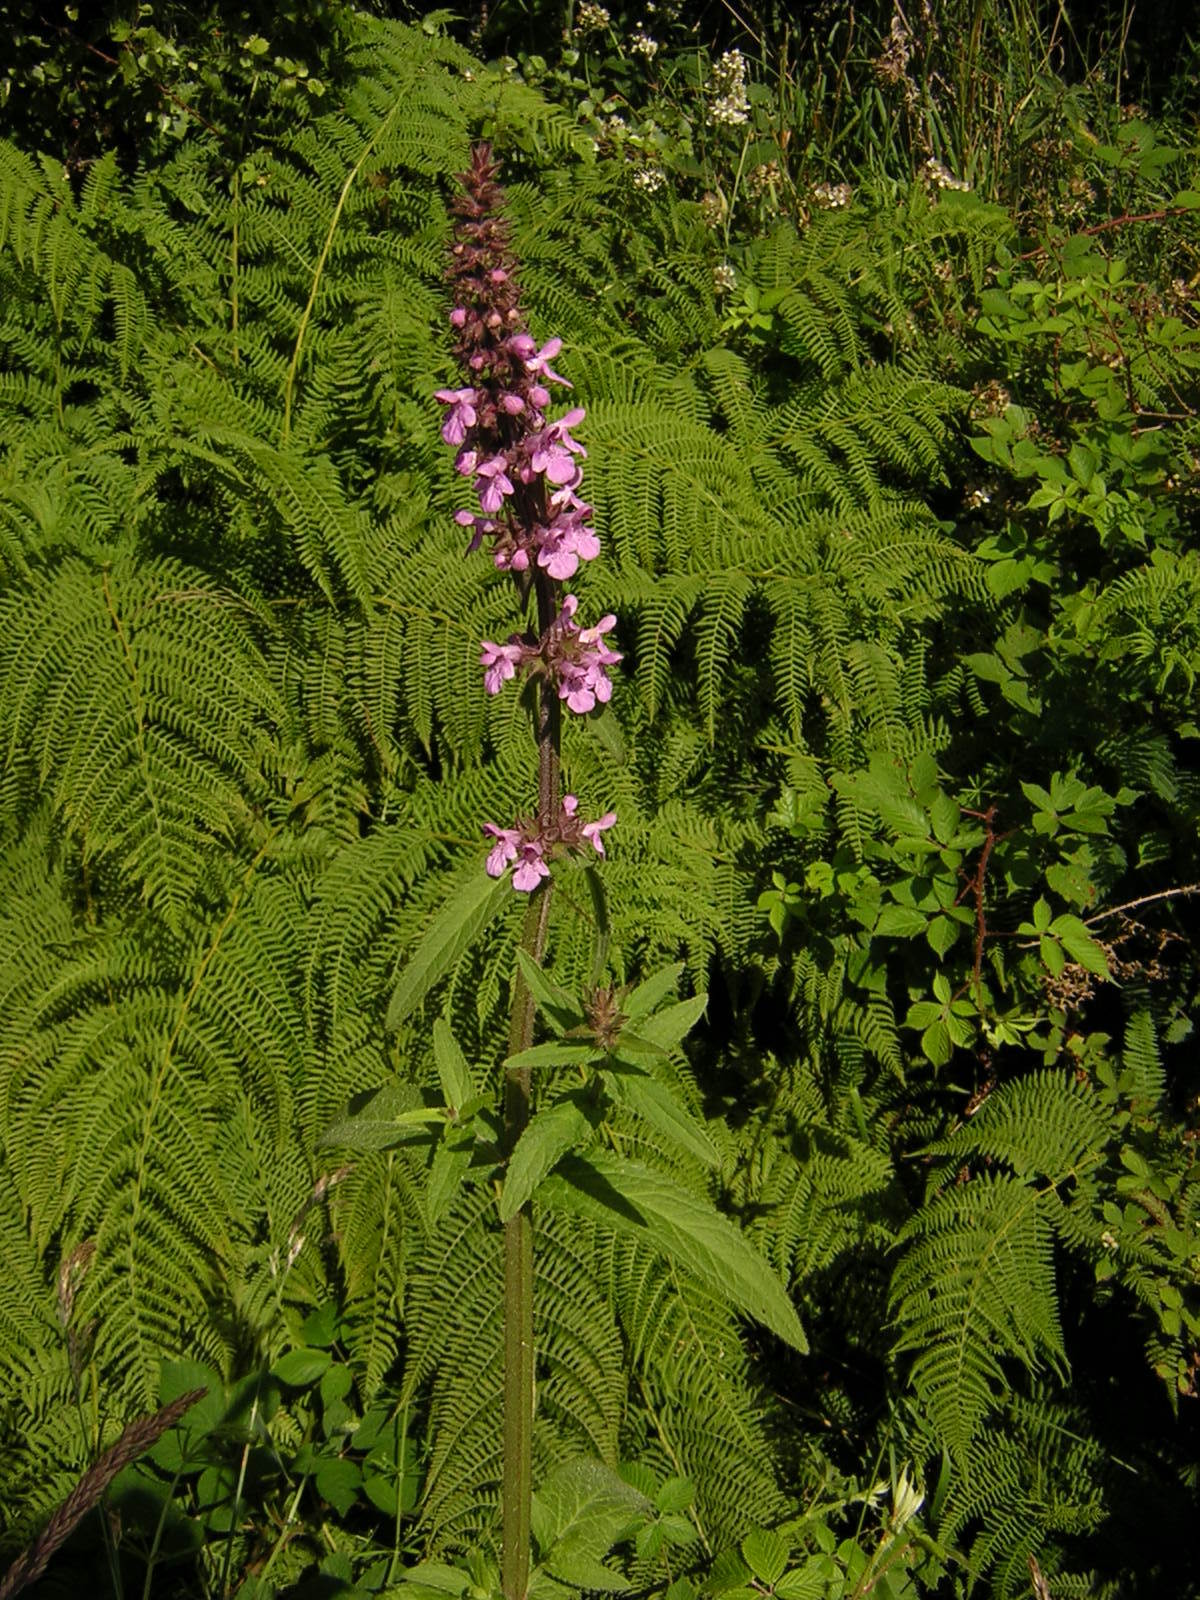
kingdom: Plantae
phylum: Tracheophyta
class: Magnoliopsida
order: Lamiales
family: Lamiaceae
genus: Stachys
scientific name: Stachys palustris
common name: Marsh woundwort
